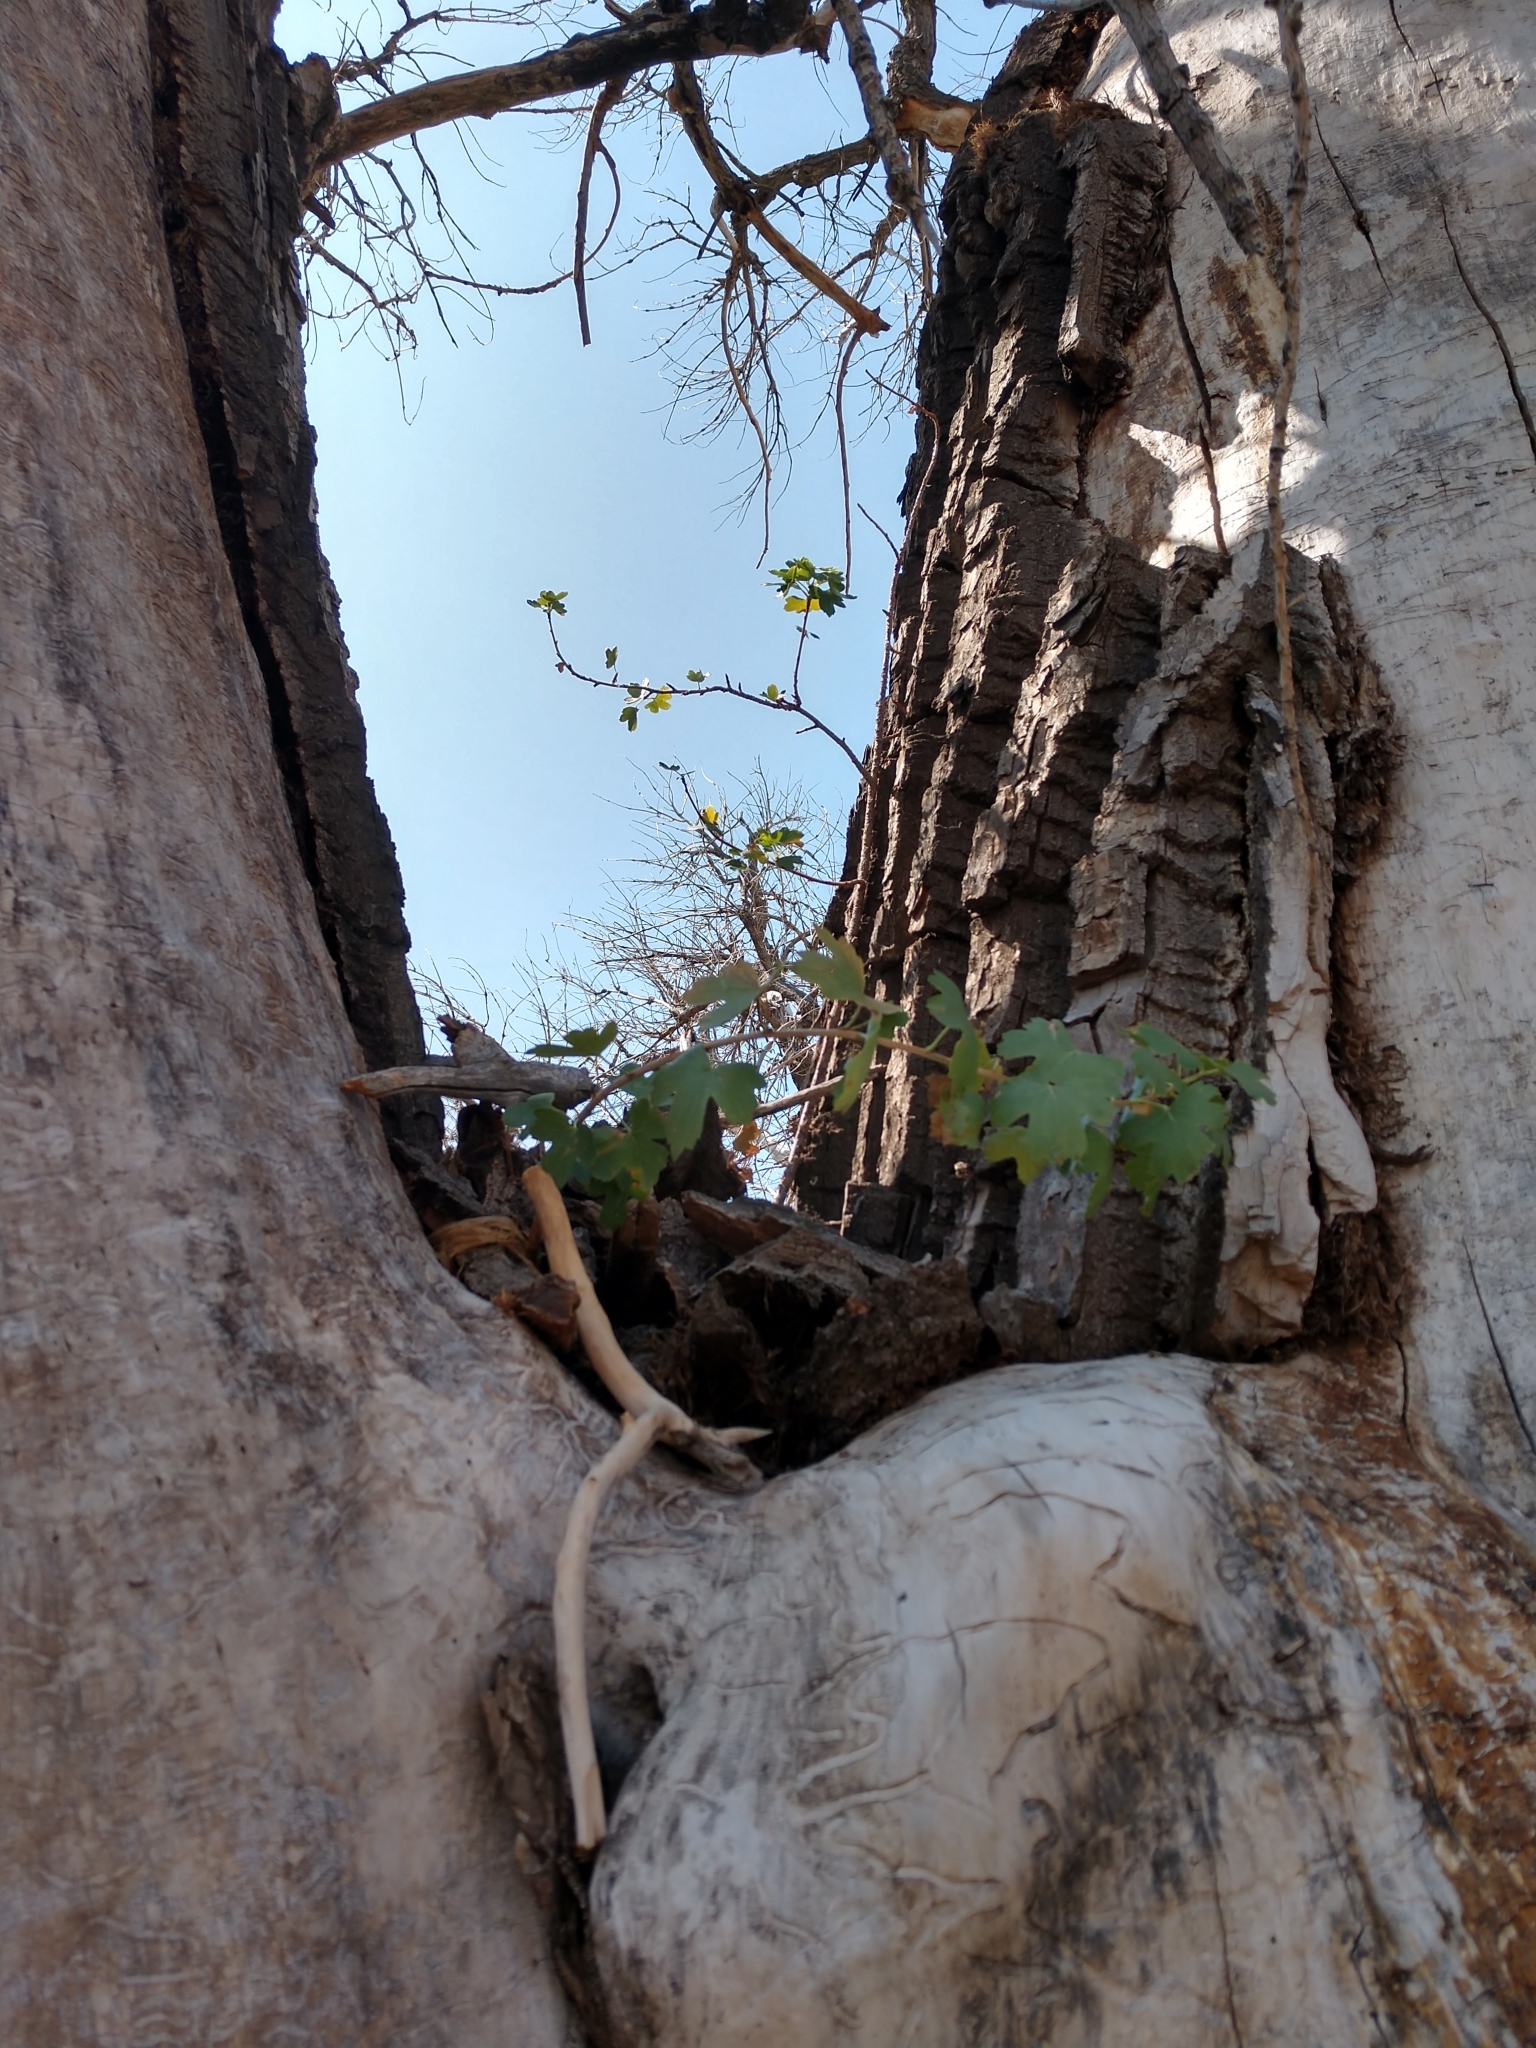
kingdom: Plantae
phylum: Tracheophyta
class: Magnoliopsida
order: Saxifragales
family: Grossulariaceae
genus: Ribes
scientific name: Ribes aureum
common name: Golden currant
